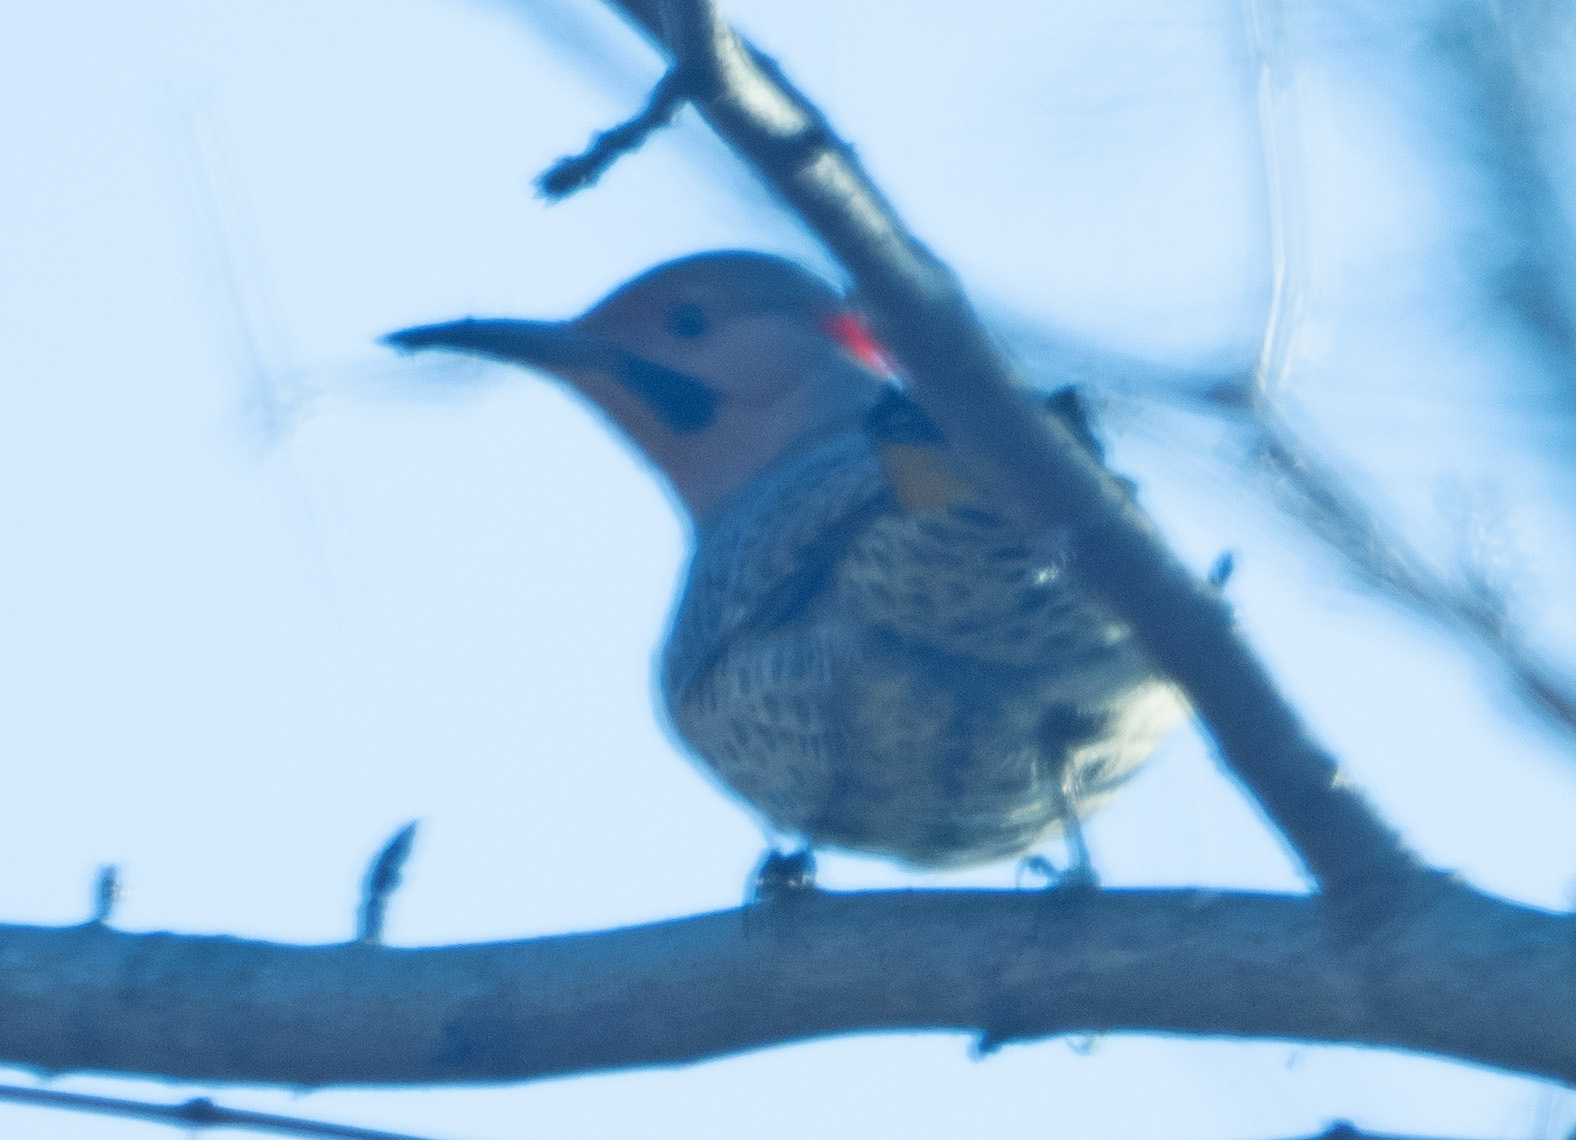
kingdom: Animalia
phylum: Chordata
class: Aves
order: Piciformes
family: Picidae
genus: Colaptes
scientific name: Colaptes auratus
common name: Northern flicker
